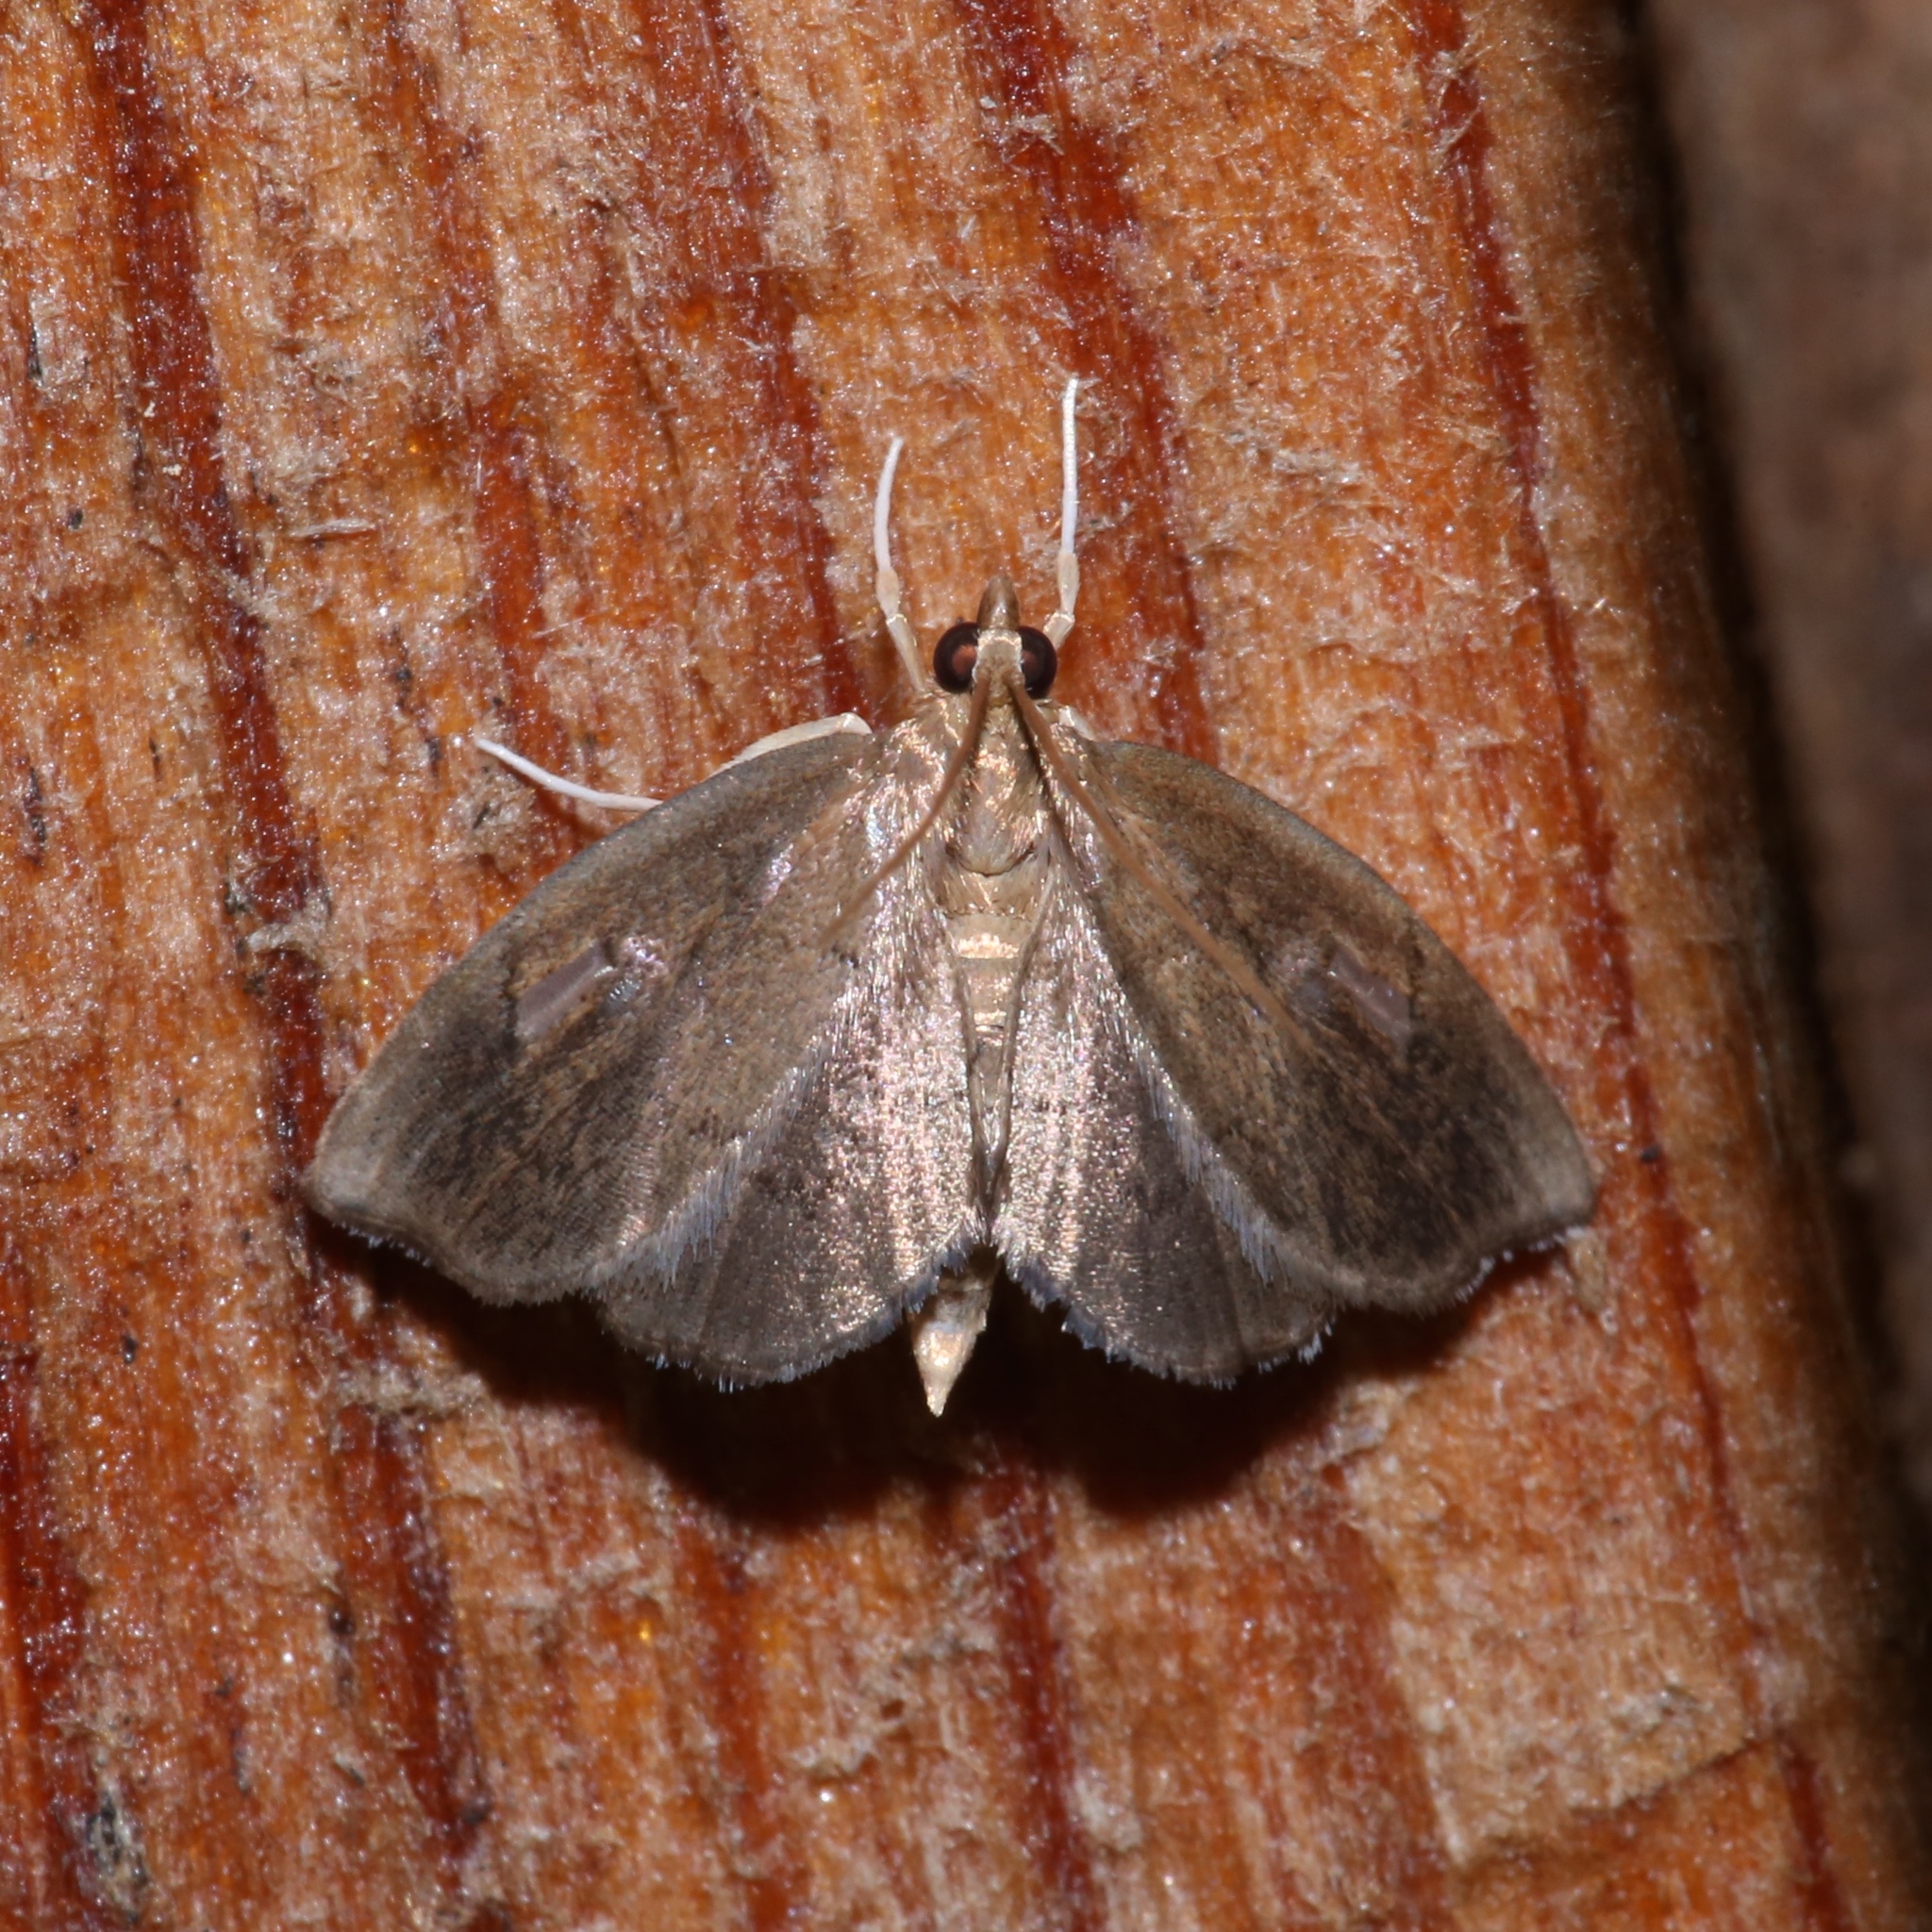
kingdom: Animalia
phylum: Arthropoda
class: Insecta
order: Lepidoptera
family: Crambidae
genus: Perispasta
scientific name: Perispasta caeculalis
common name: Titian peale's moth
